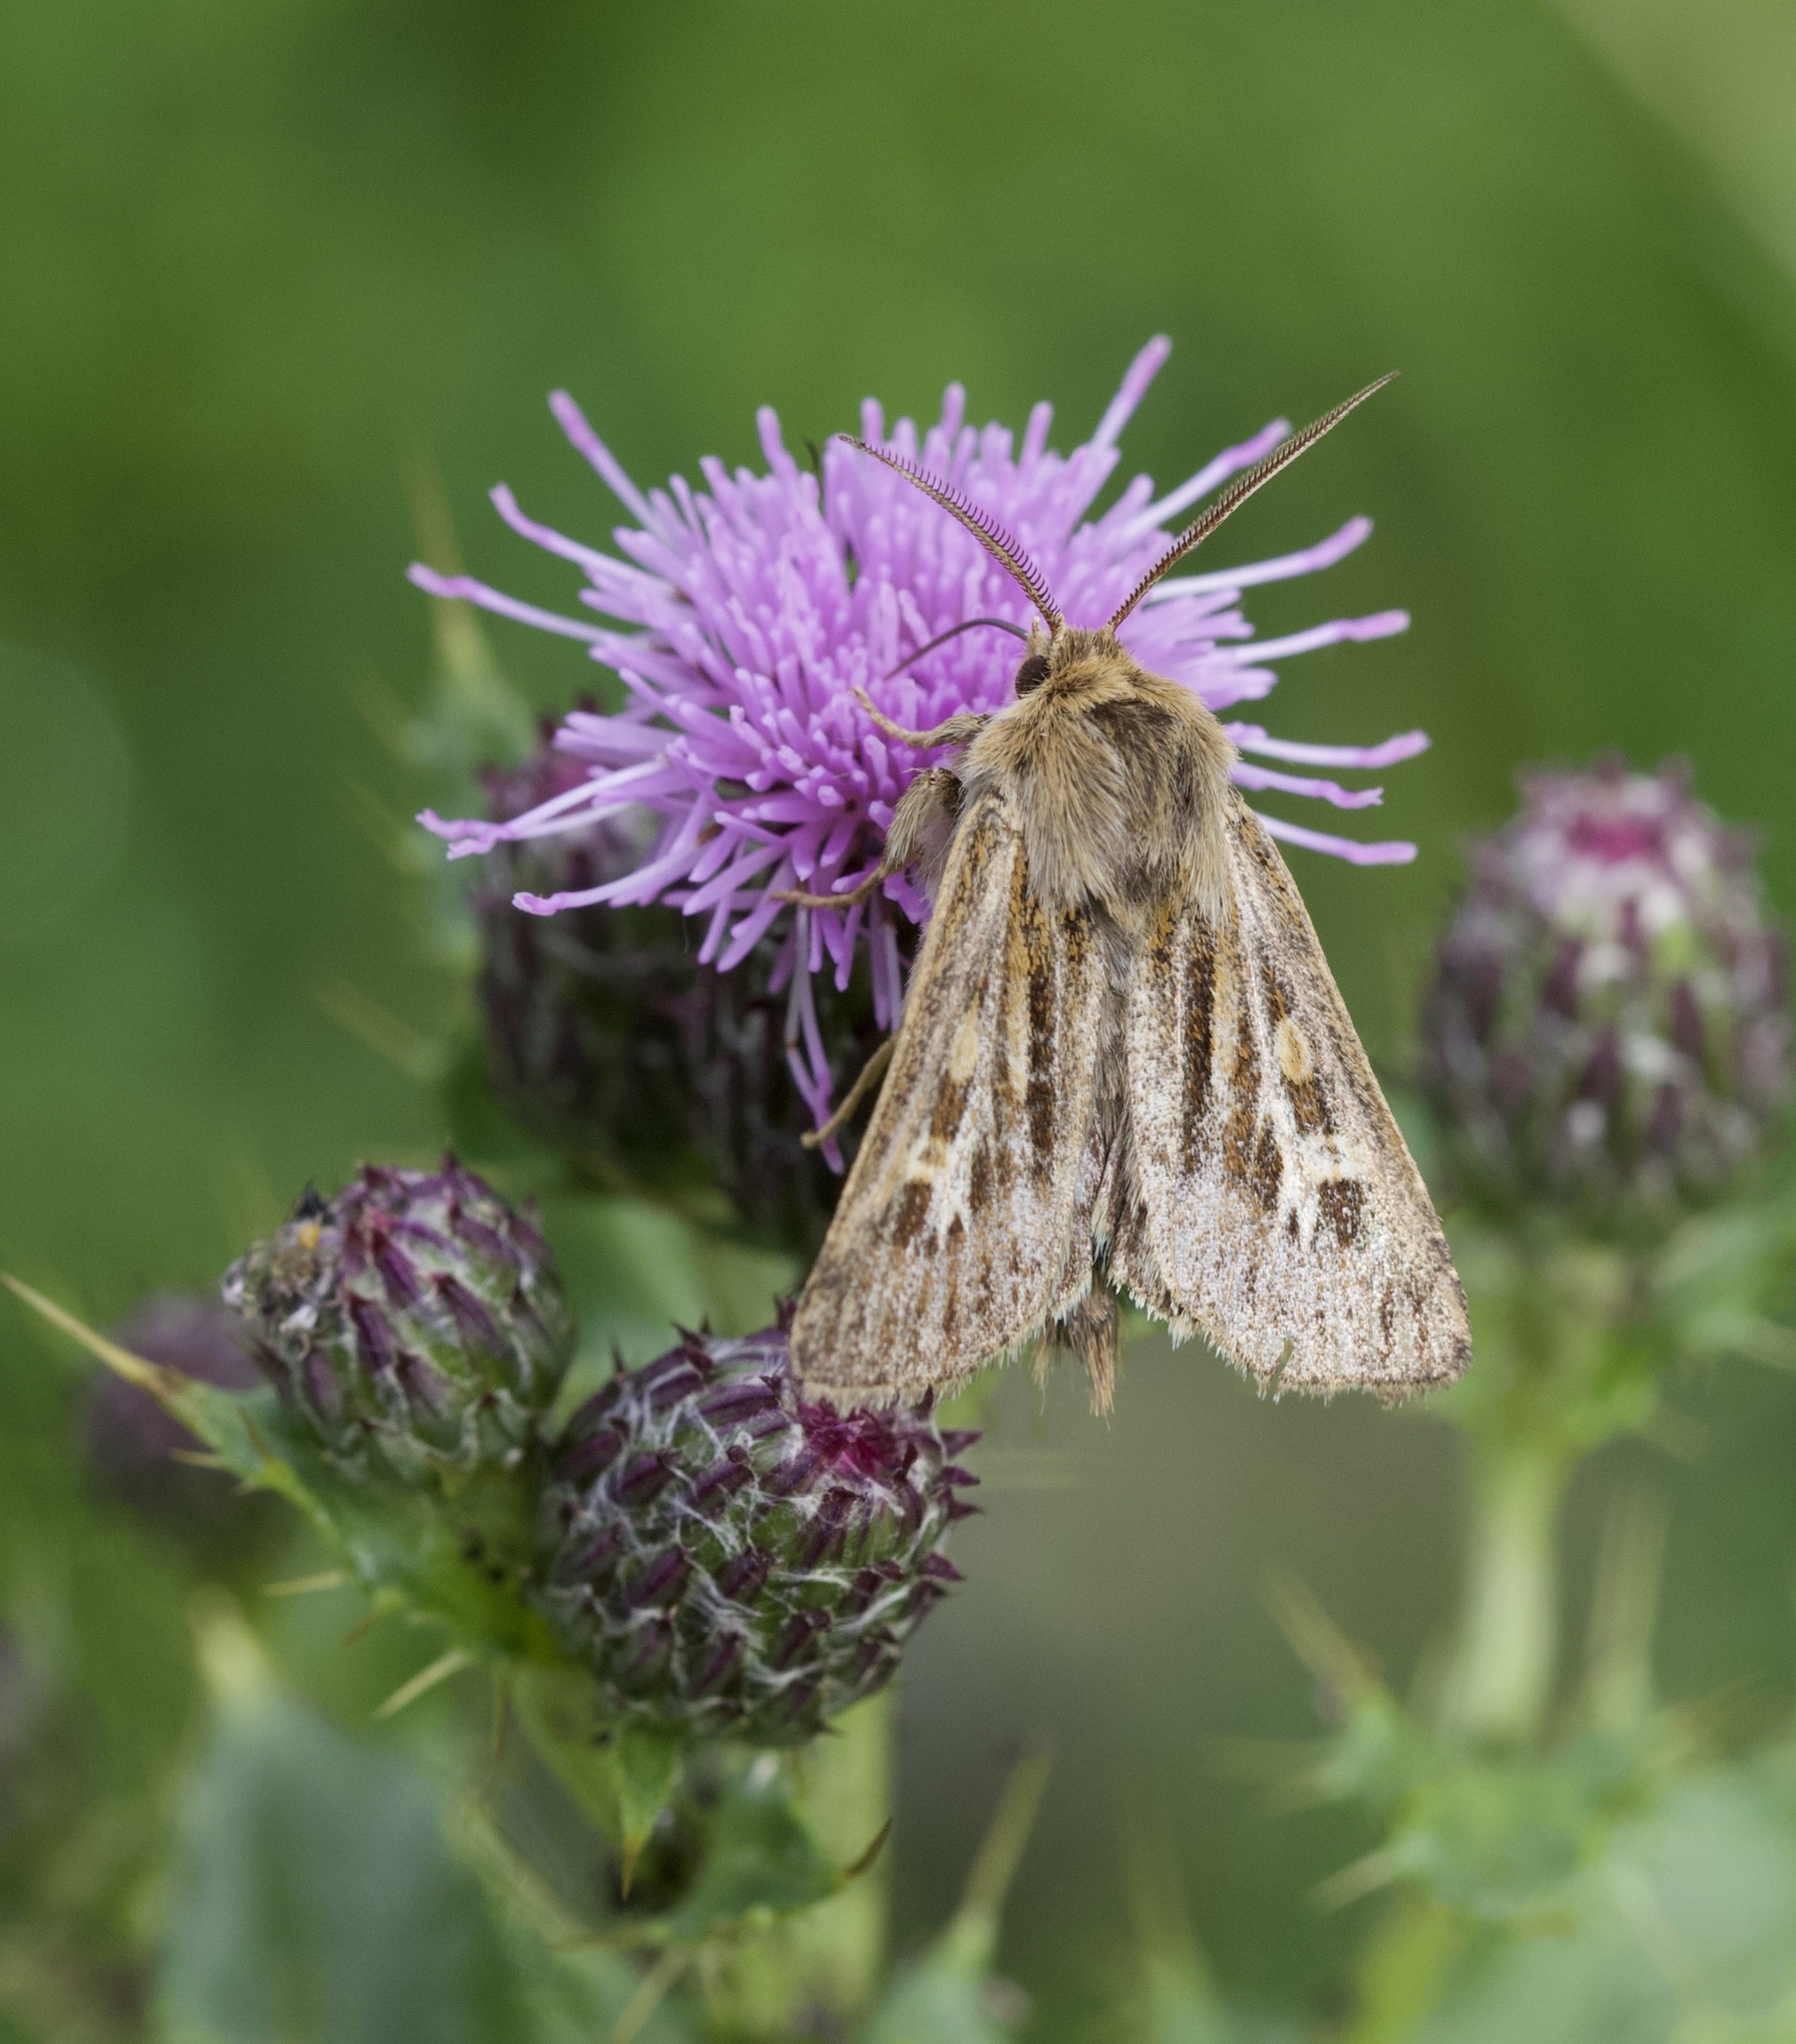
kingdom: Animalia
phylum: Arthropoda
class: Insecta
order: Lepidoptera
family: Noctuidae
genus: Cerapteryx
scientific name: Cerapteryx graminis
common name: Antler moth
